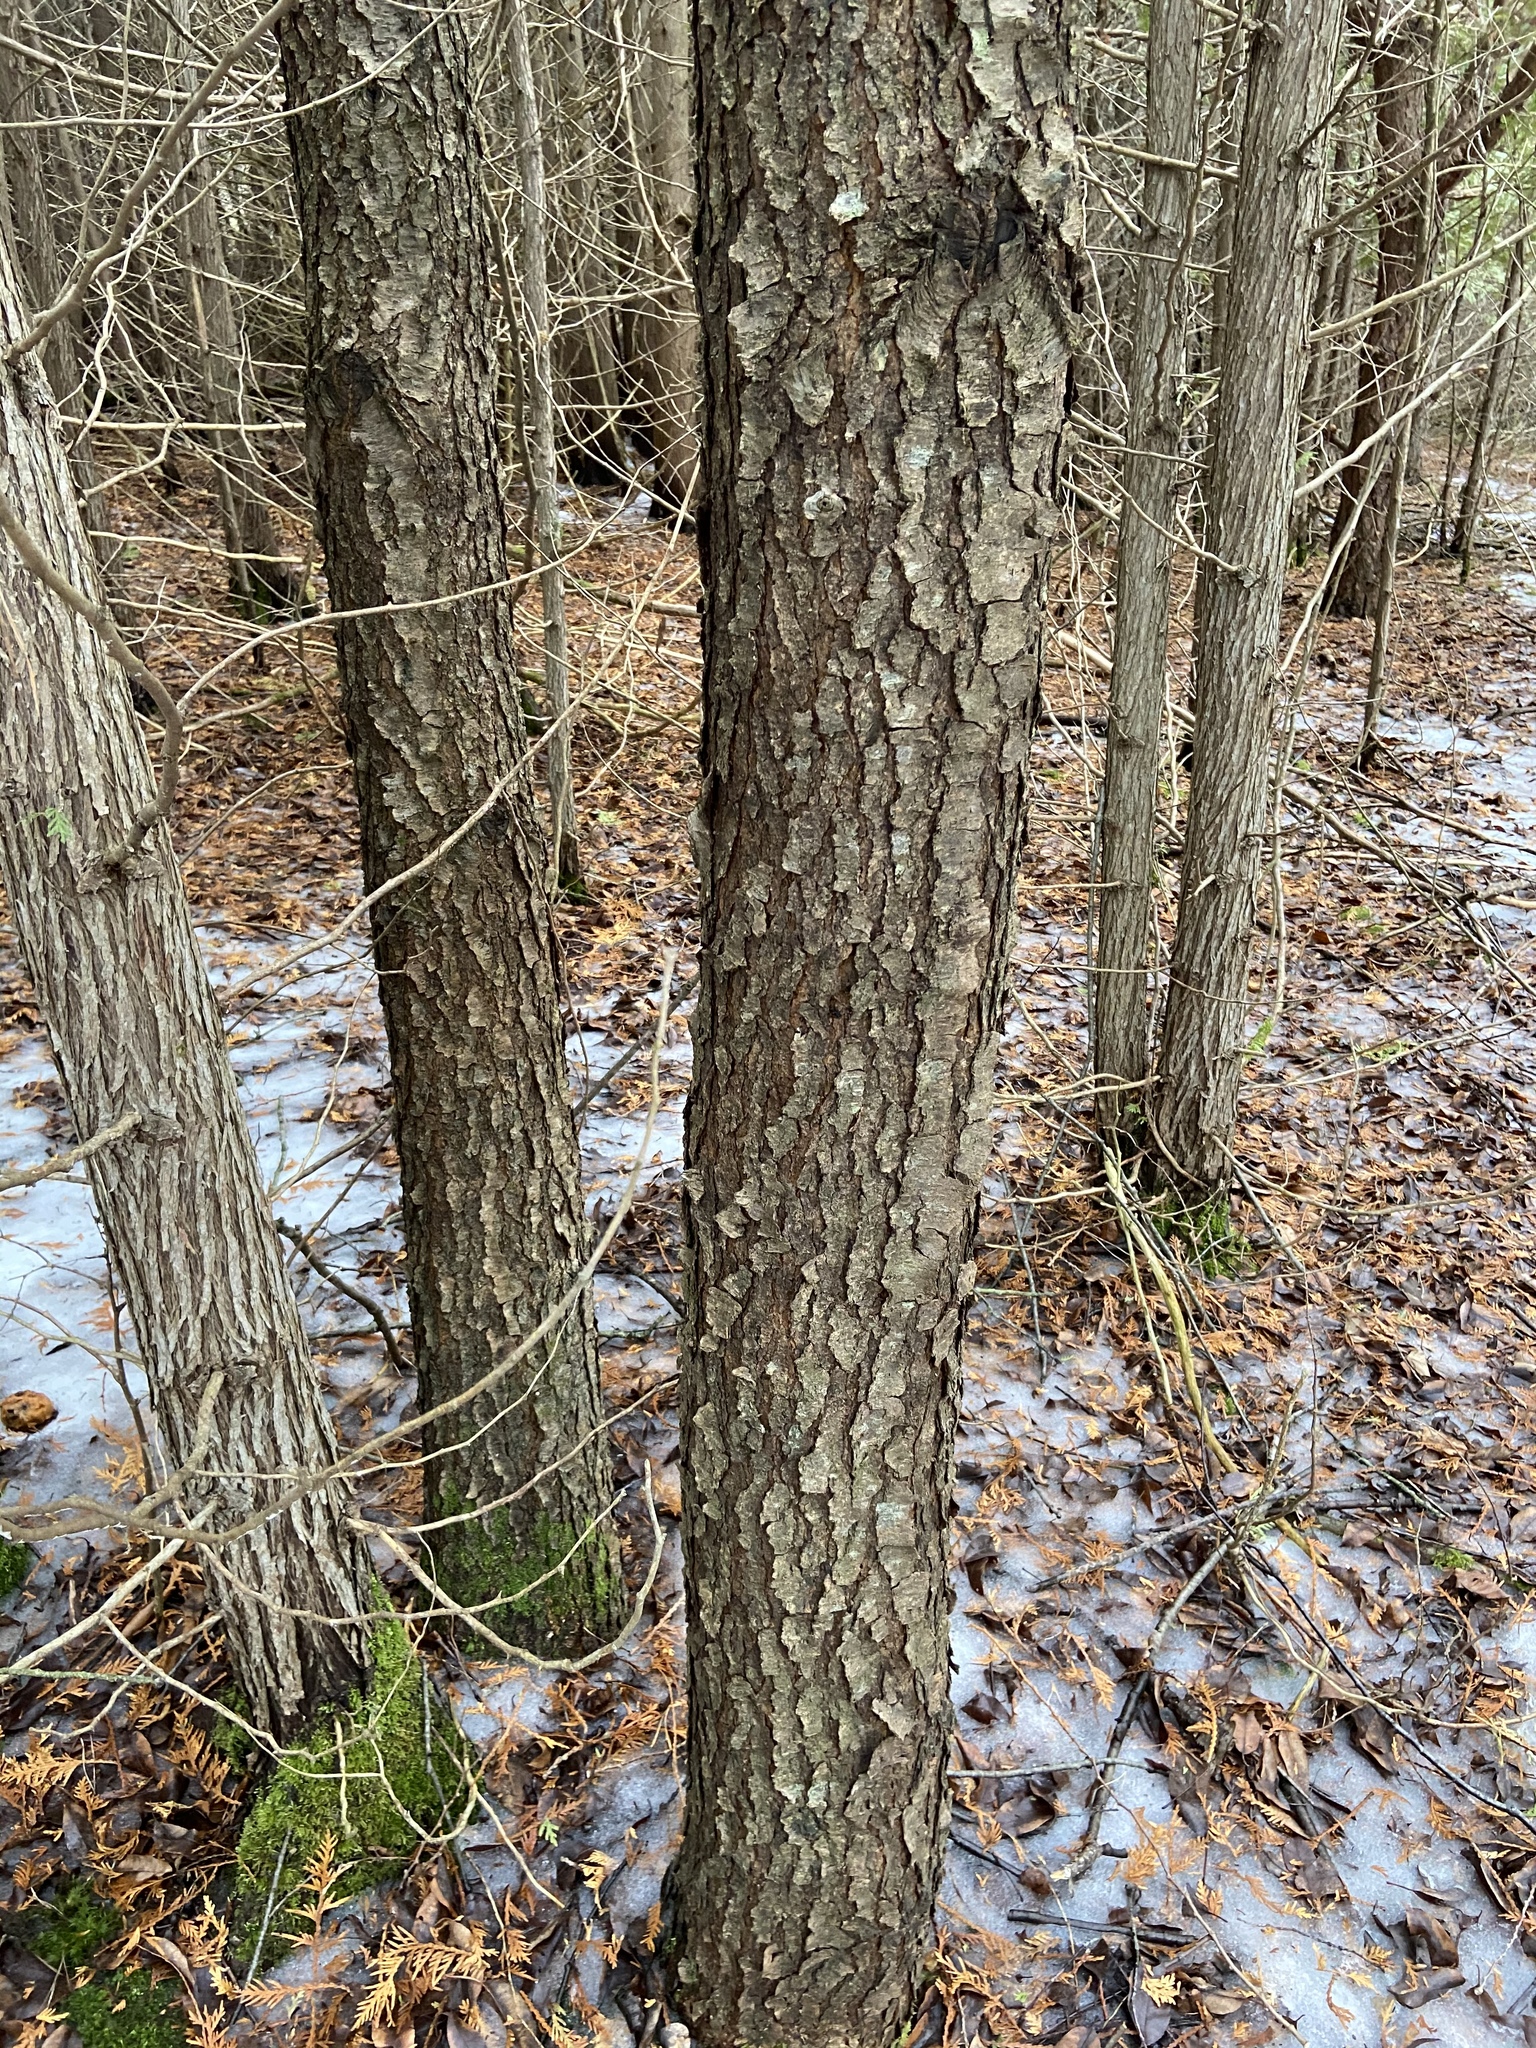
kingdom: Plantae
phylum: Tracheophyta
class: Magnoliopsida
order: Rosales
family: Rosaceae
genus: Prunus
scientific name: Prunus serotina
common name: Black cherry
